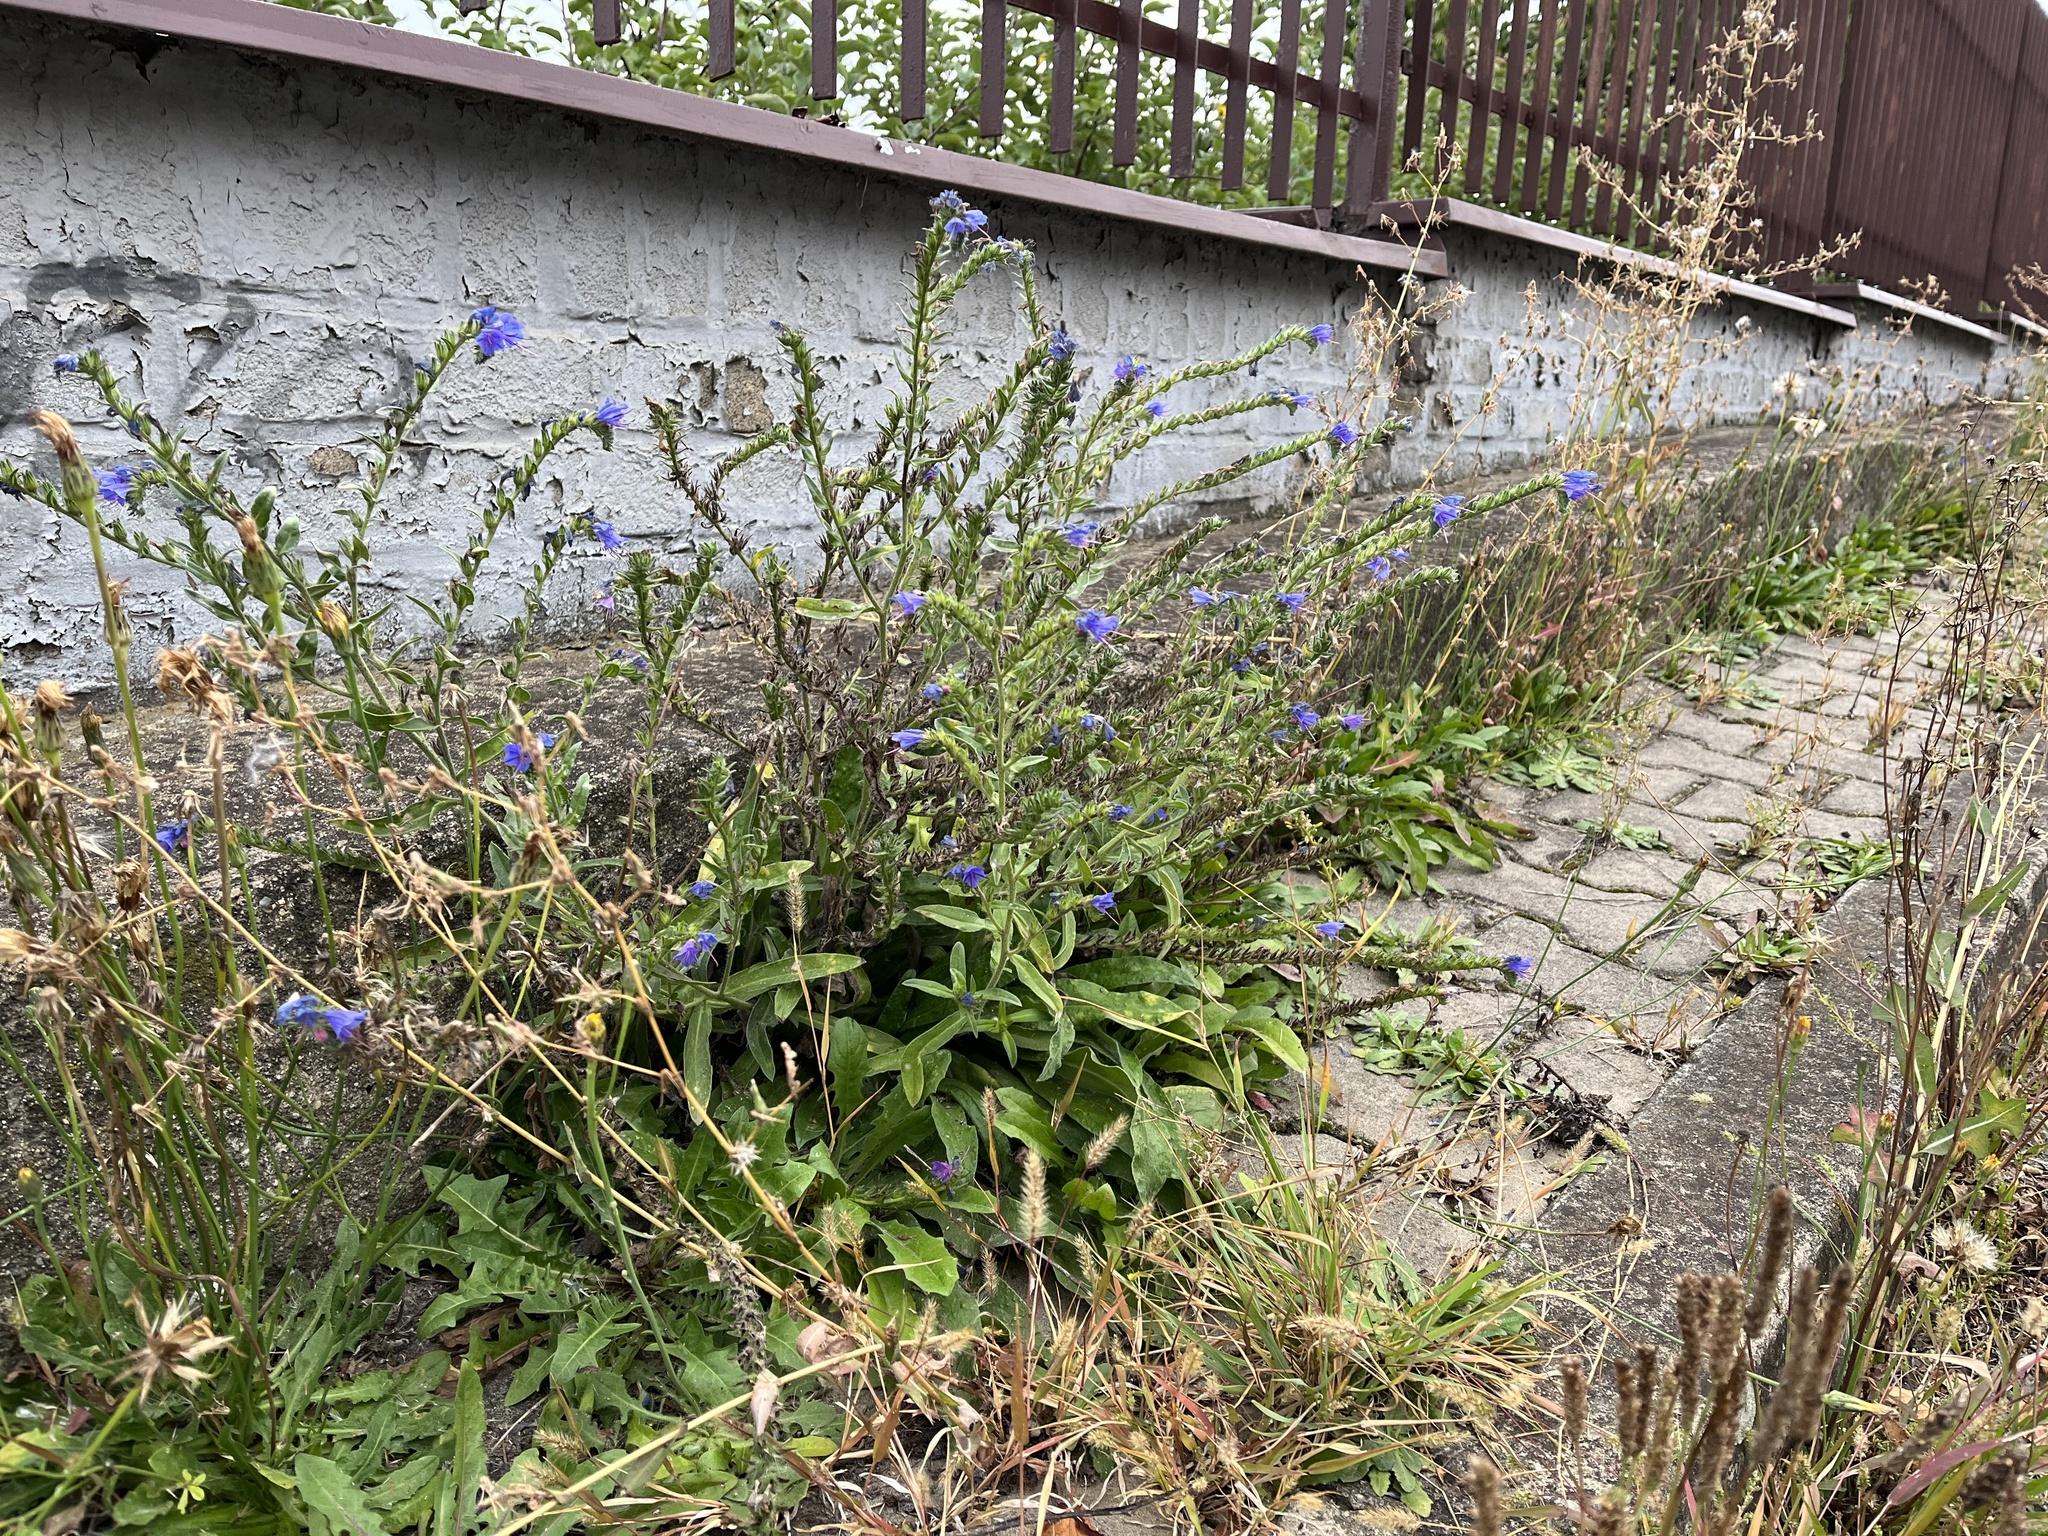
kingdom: Plantae
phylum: Tracheophyta
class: Magnoliopsida
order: Boraginales
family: Boraginaceae
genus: Echium
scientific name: Echium vulgare
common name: Common viper's bugloss
